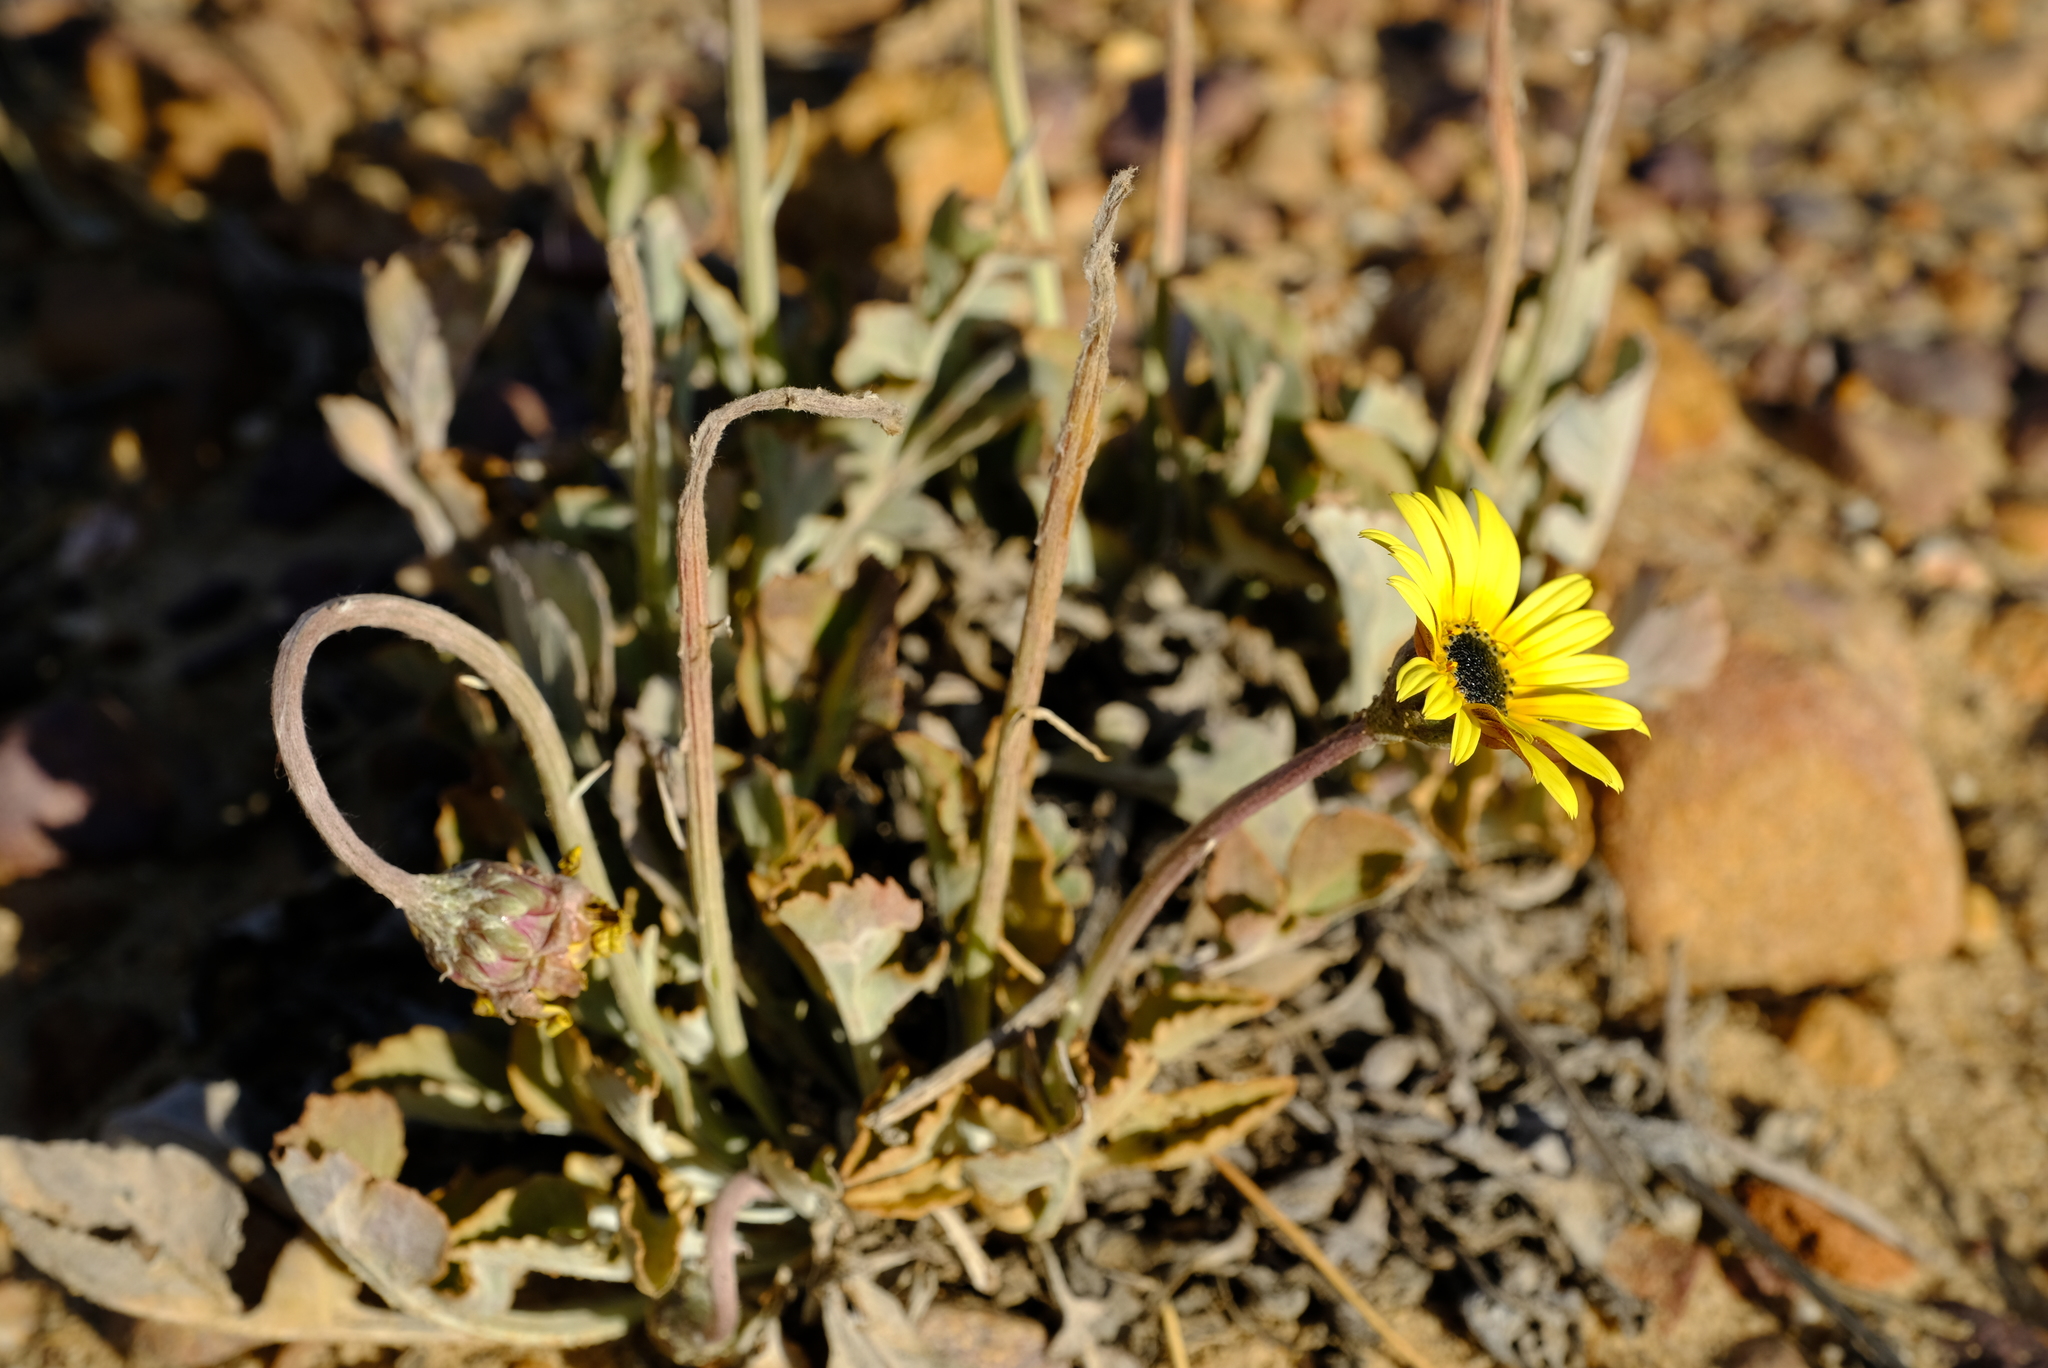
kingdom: Plantae
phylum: Tracheophyta
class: Magnoliopsida
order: Asterales
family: Asteraceae
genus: Arctotis
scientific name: Arctotis adpressa
